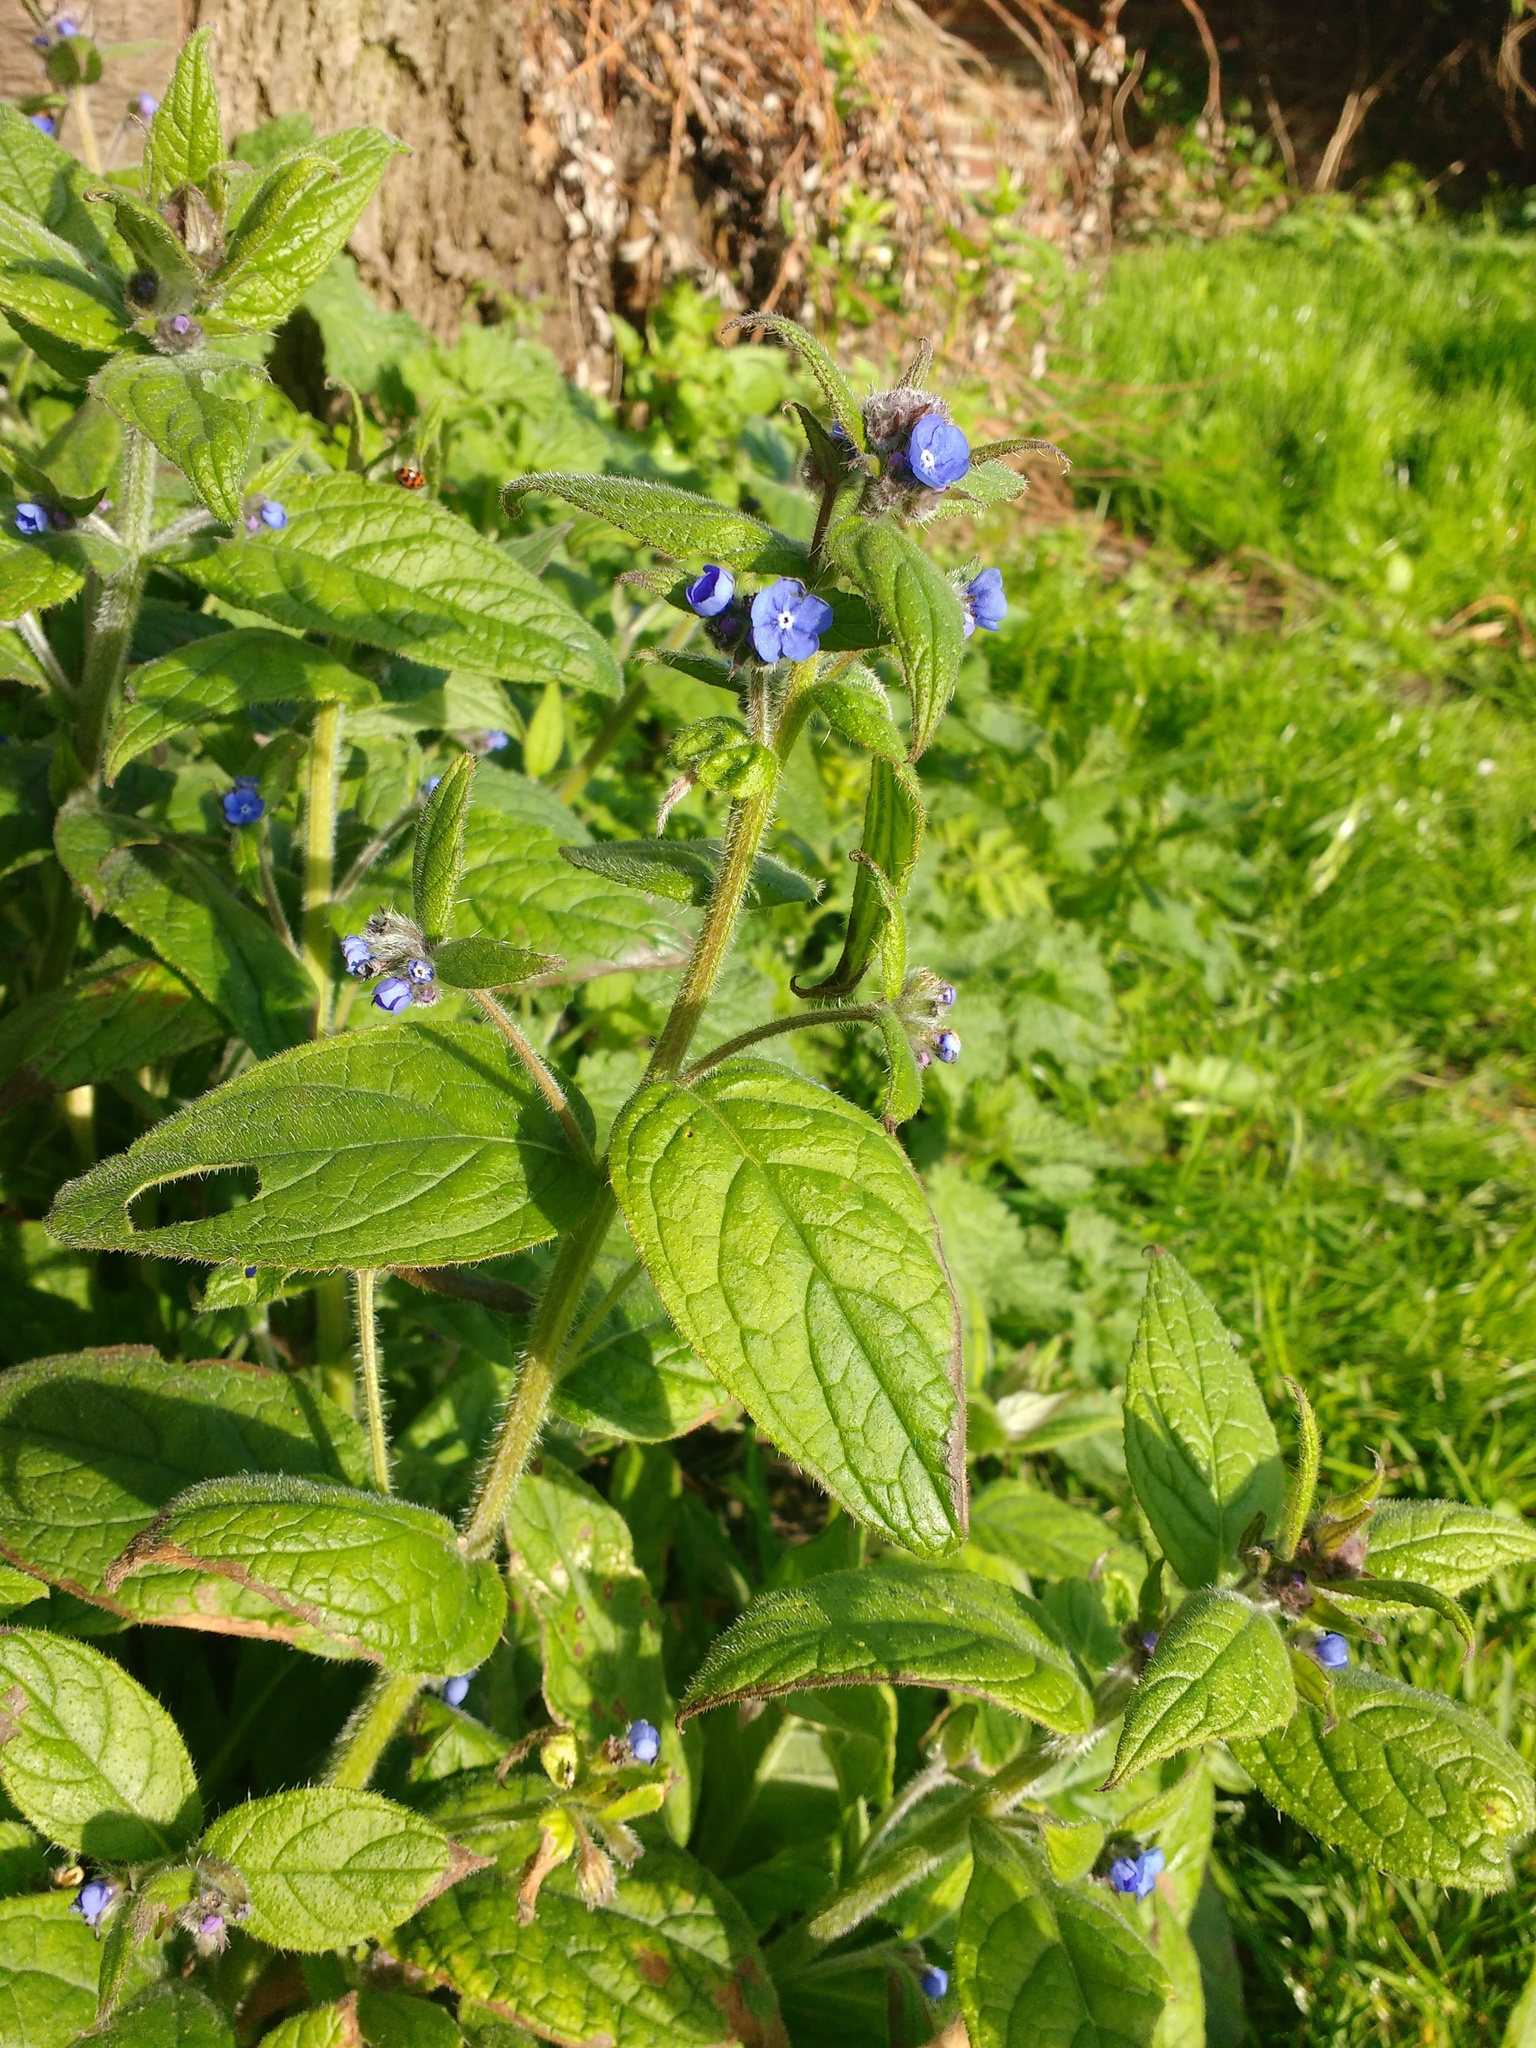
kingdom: Plantae
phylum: Tracheophyta
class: Magnoliopsida
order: Boraginales
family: Boraginaceae
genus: Pentaglottis
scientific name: Pentaglottis sempervirens
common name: Green alkanet
